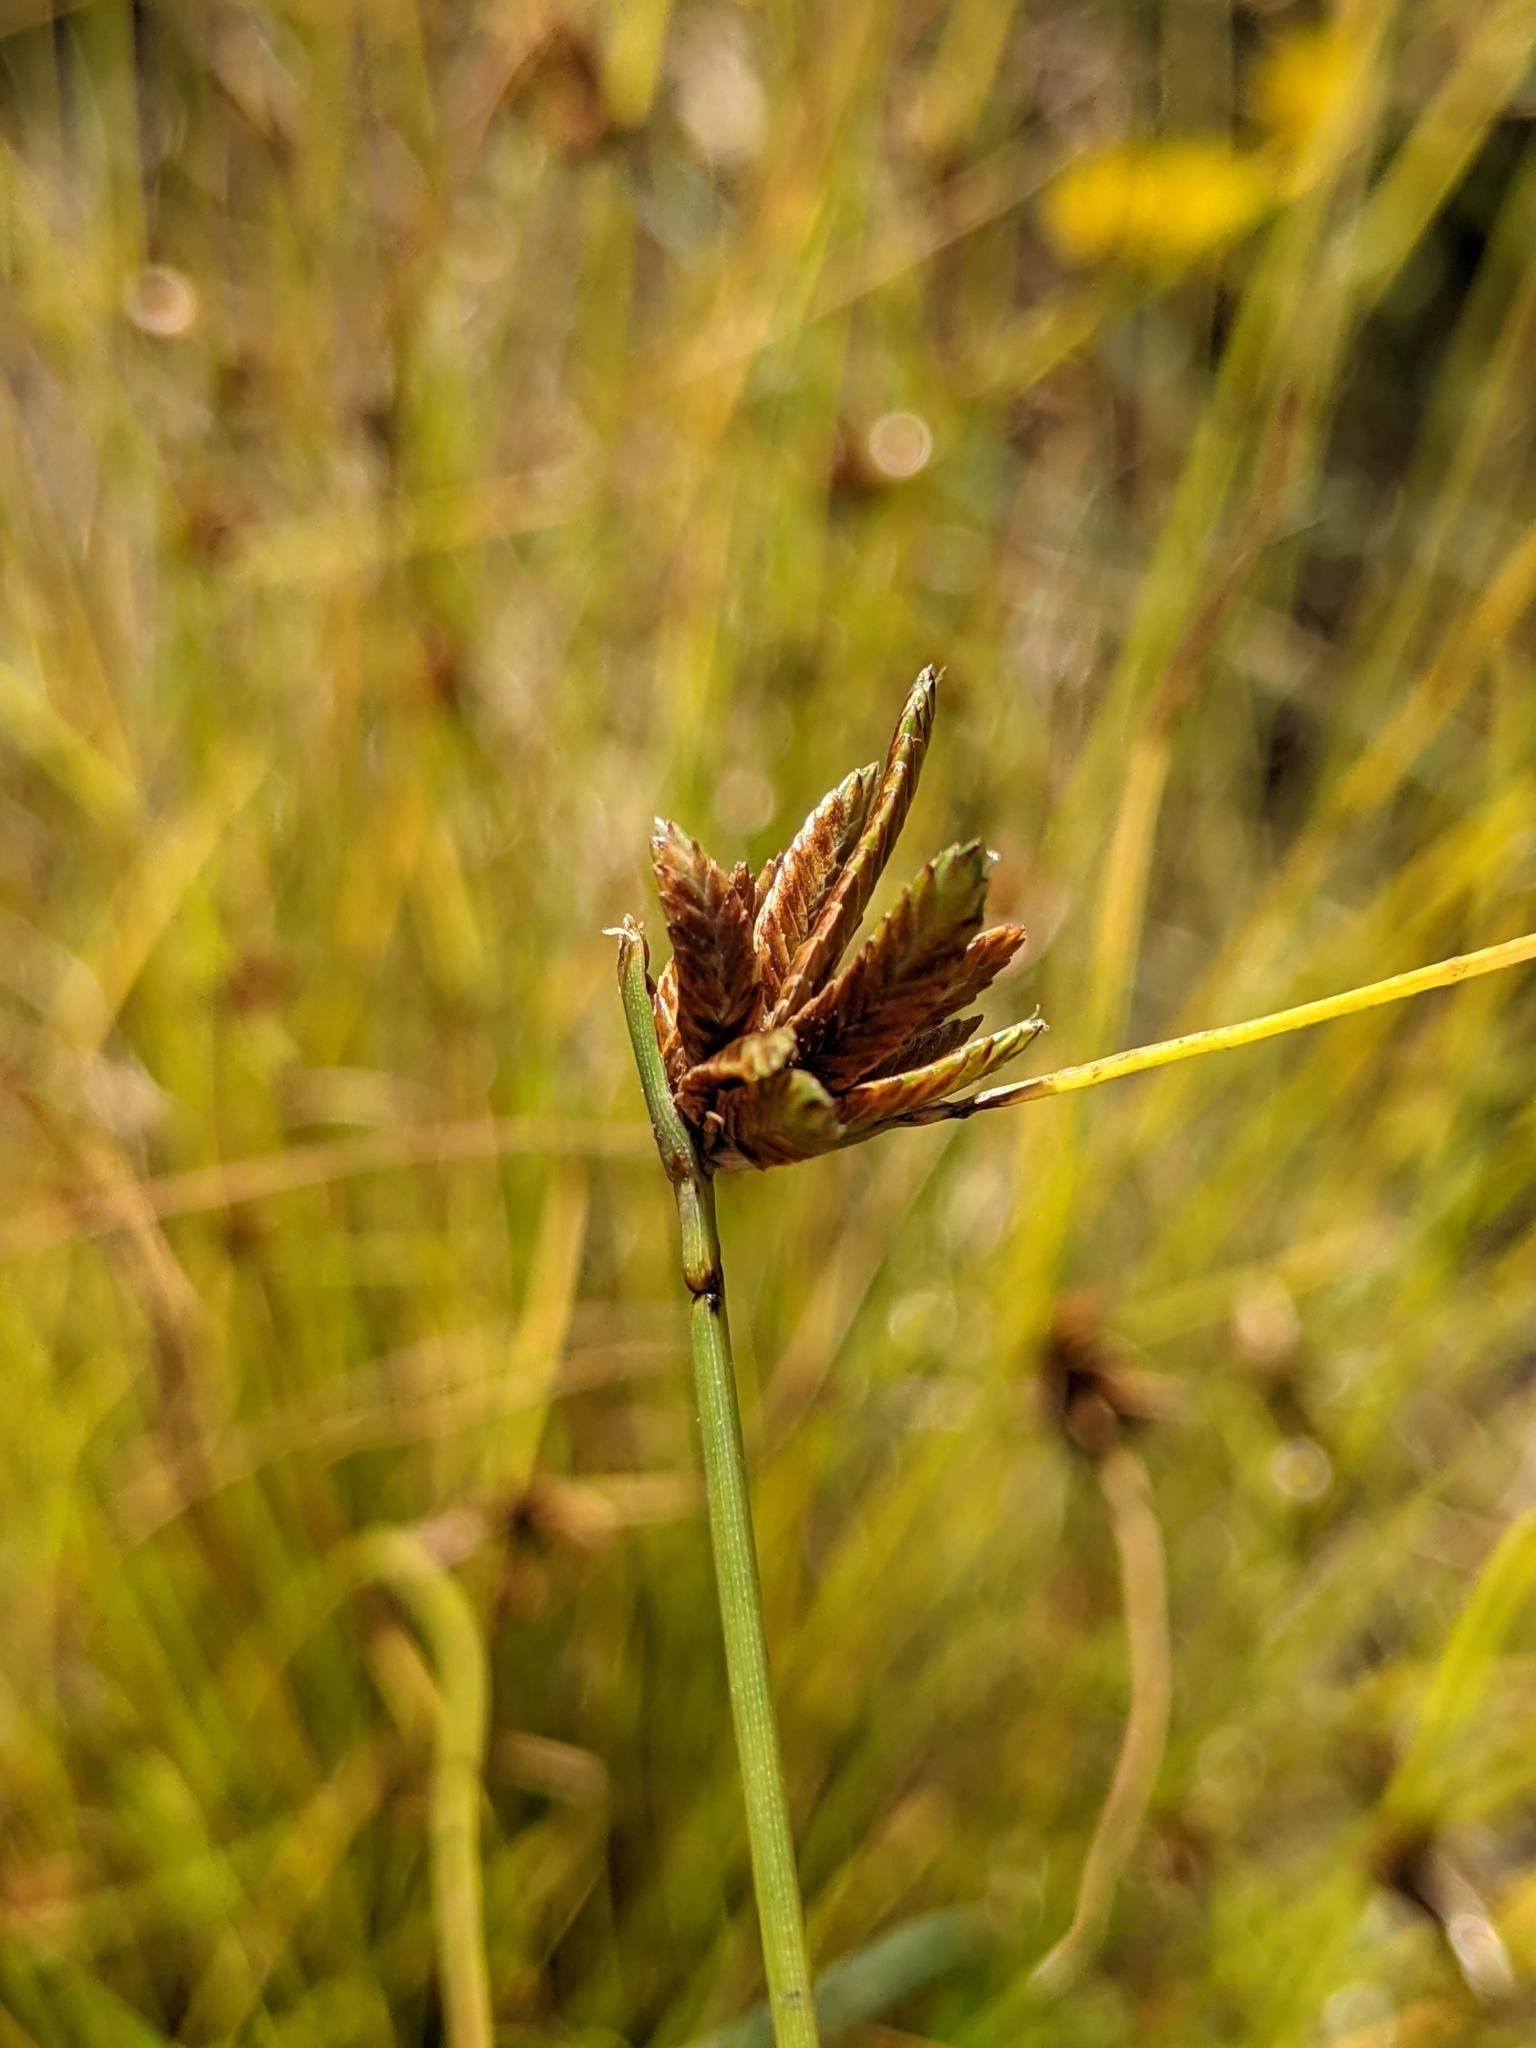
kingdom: Plantae
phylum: Tracheophyta
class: Liliopsida
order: Poales
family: Cyperaceae
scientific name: Cyperaceae
